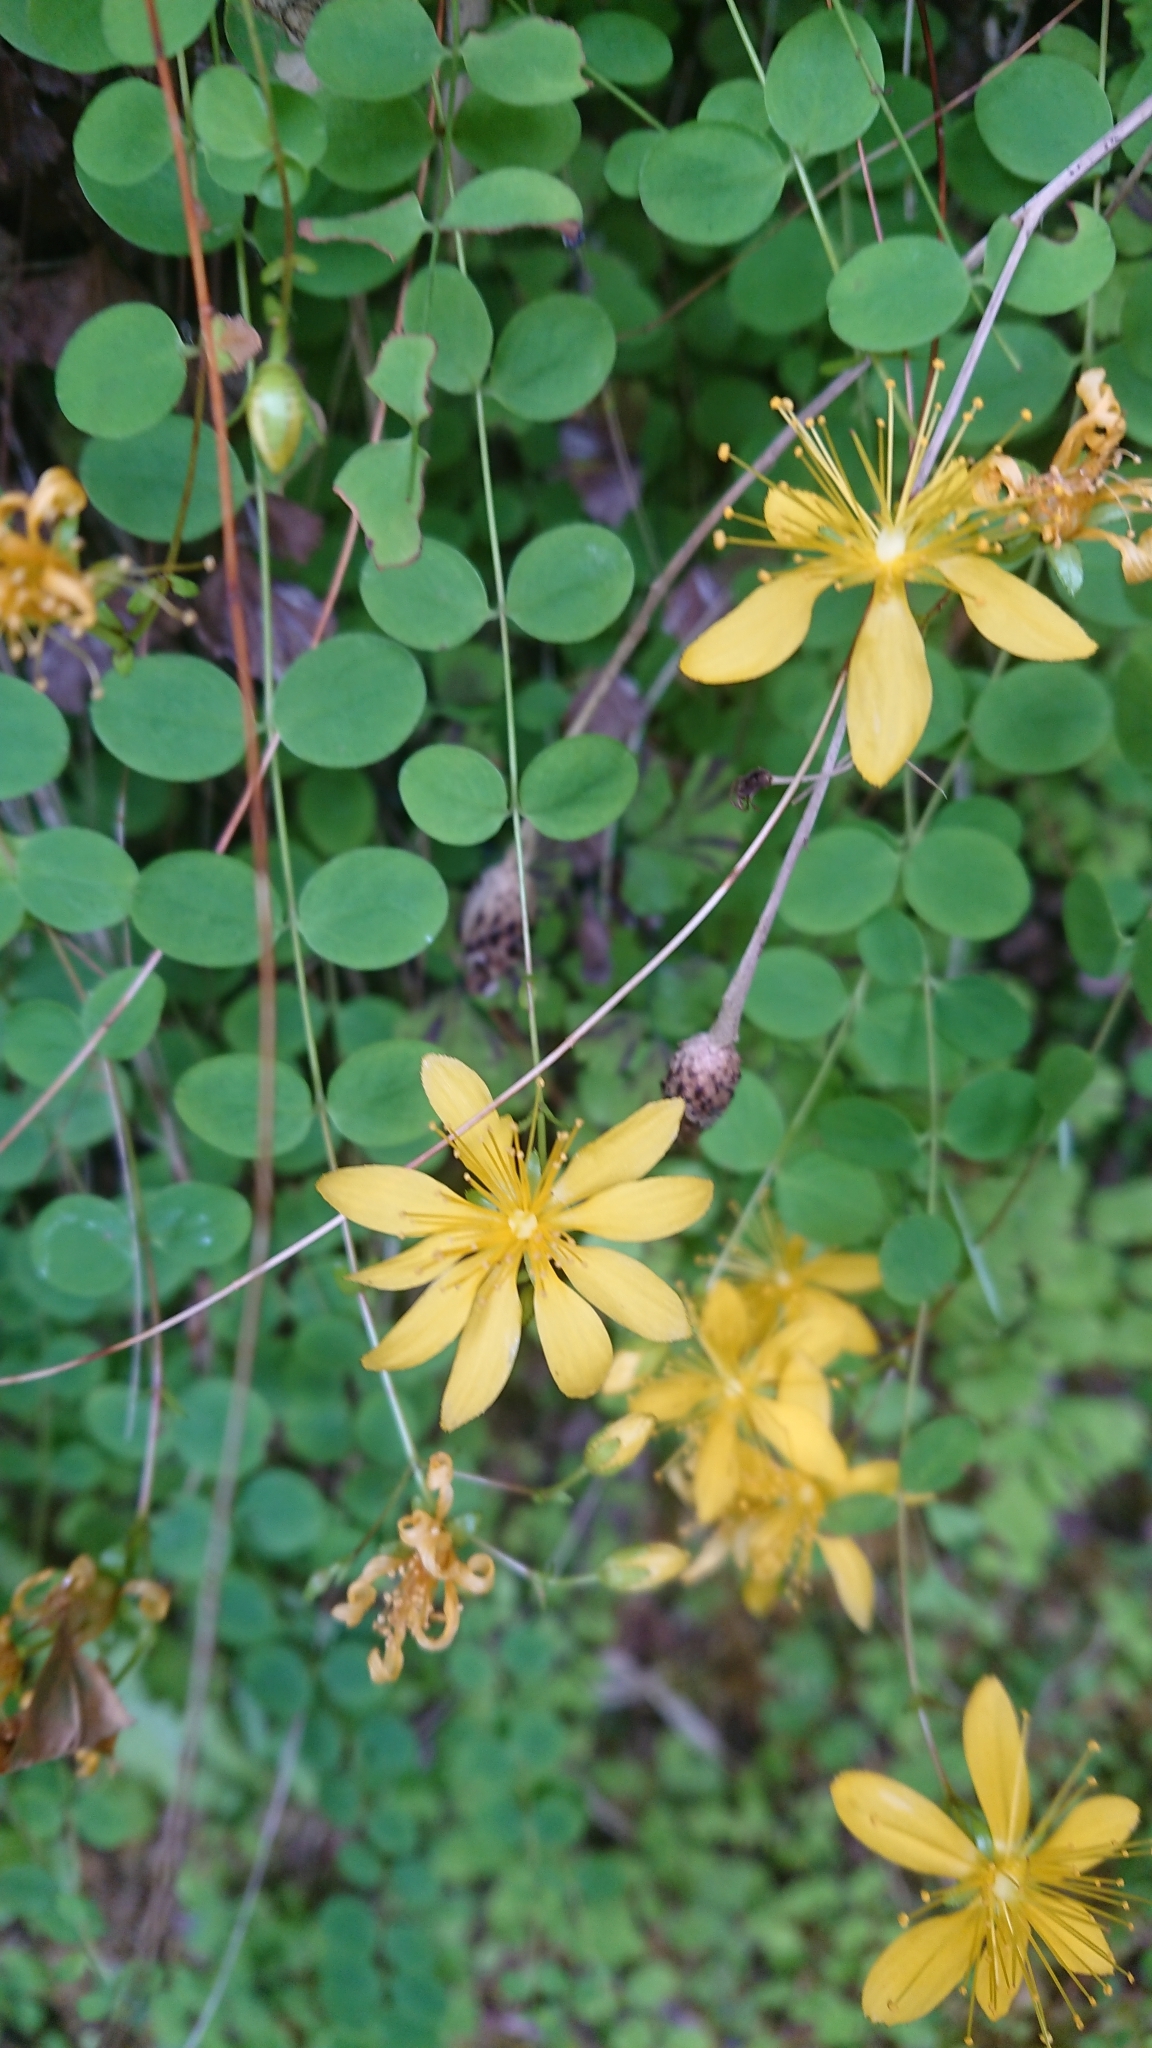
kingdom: Plantae
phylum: Tracheophyta
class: Magnoliopsida
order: Malpighiales
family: Hypericaceae
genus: Hypericum
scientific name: Hypericum nummularium
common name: Round-leaved st john's-wort
